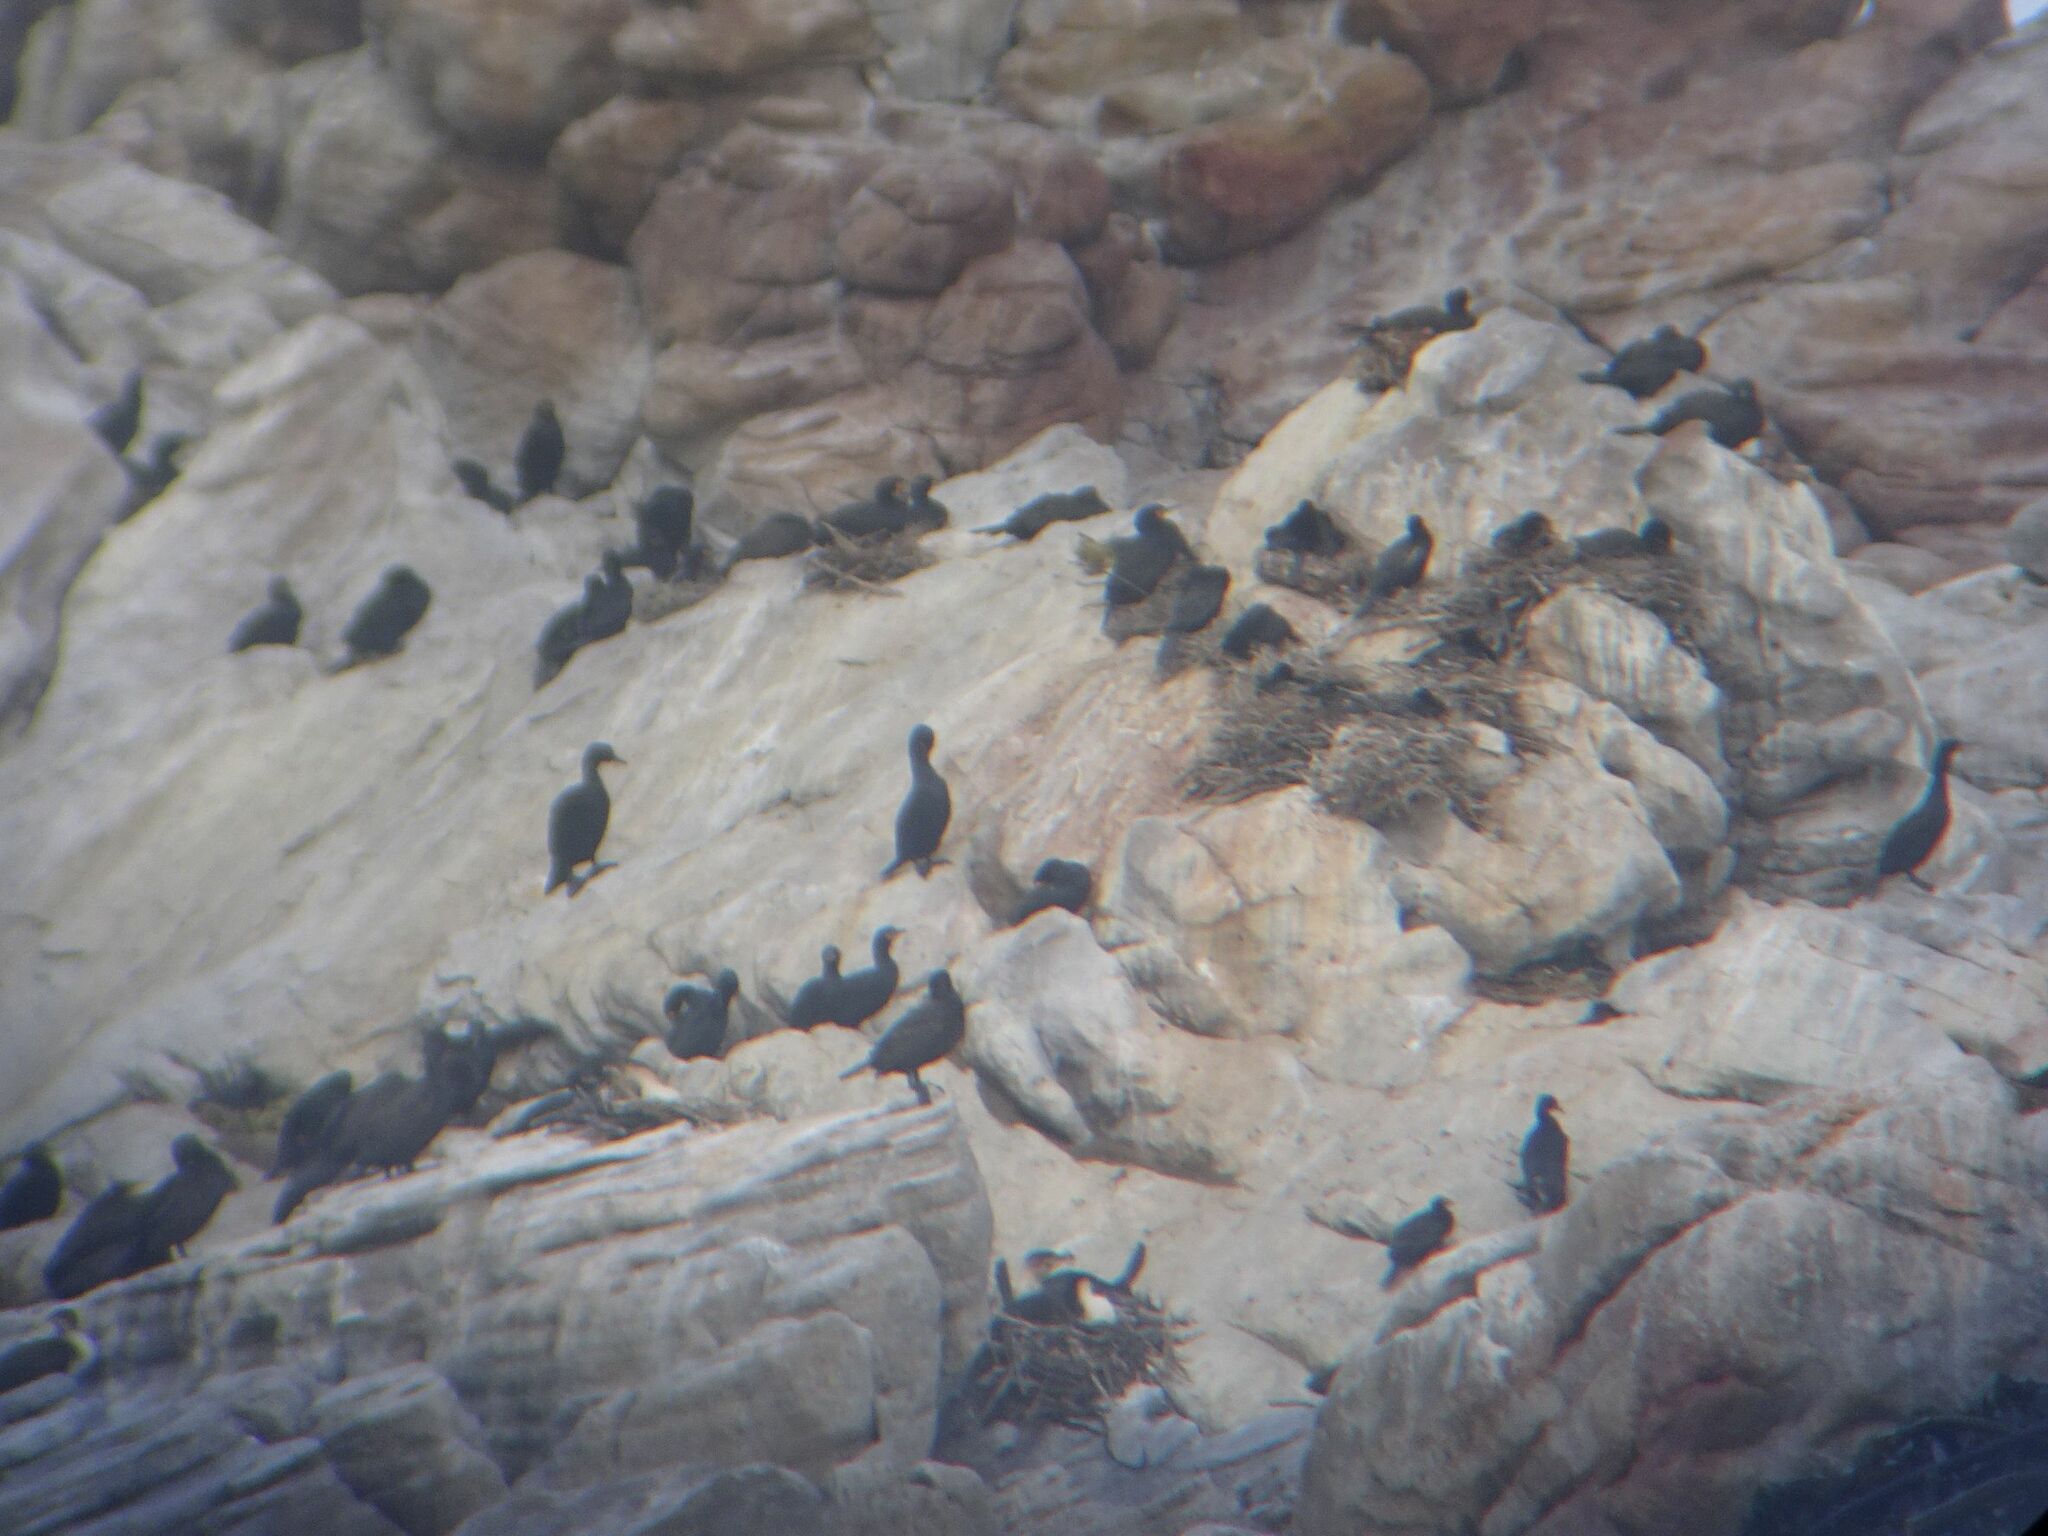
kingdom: Animalia
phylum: Chordata
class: Aves
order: Suliformes
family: Phalacrocoracidae
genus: Phalacrocorax
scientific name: Phalacrocorax capensis
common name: Cape cormorant
